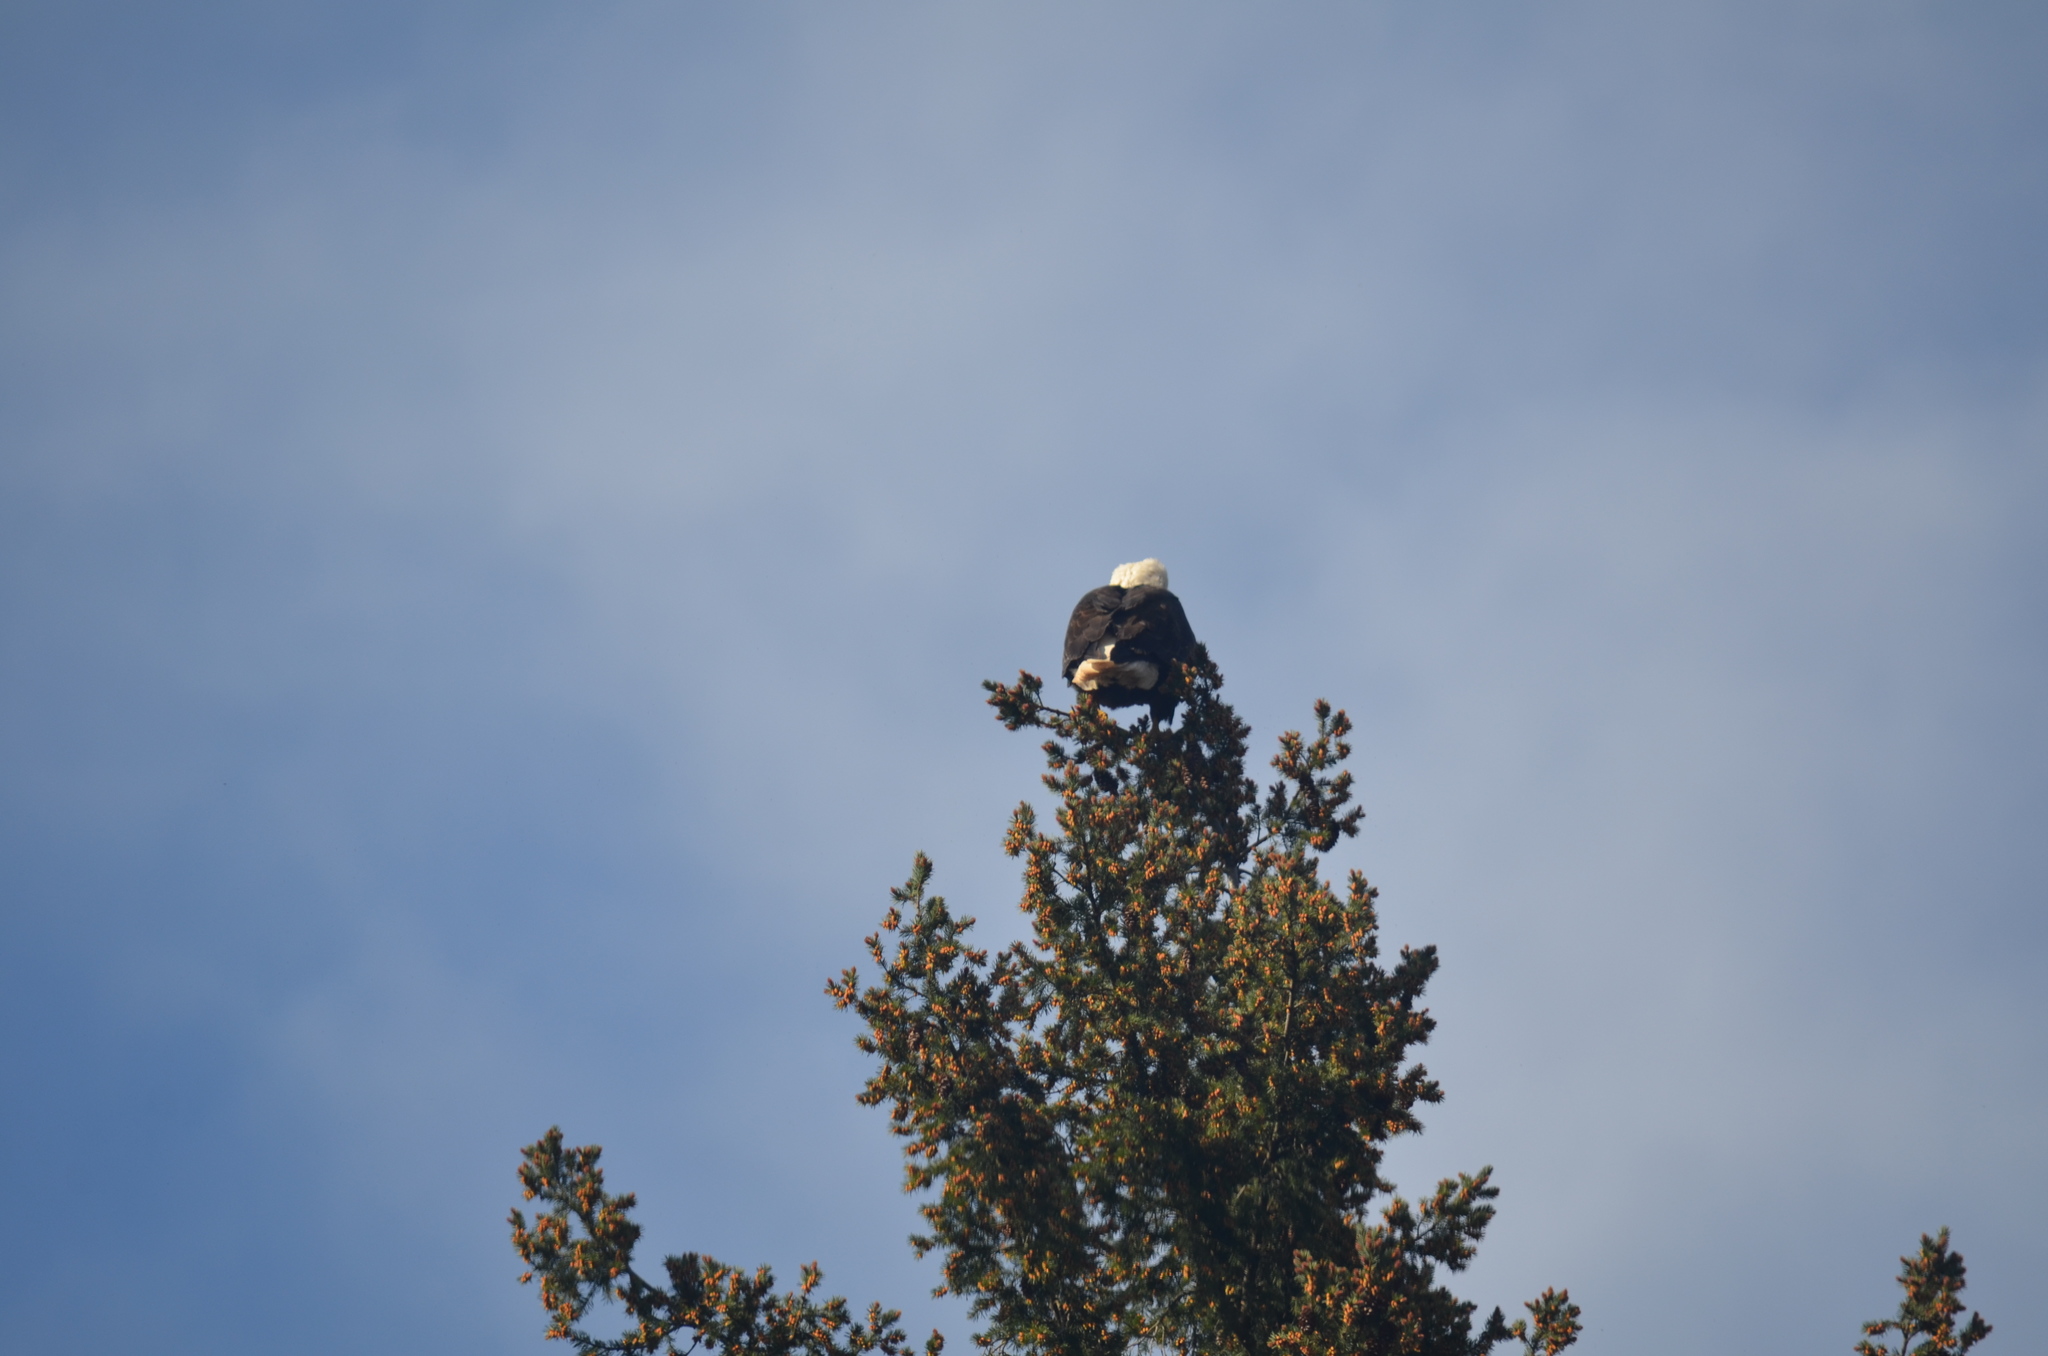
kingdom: Animalia
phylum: Chordata
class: Aves
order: Accipitriformes
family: Accipitridae
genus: Haliaeetus
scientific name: Haliaeetus leucocephalus
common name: Bald eagle
